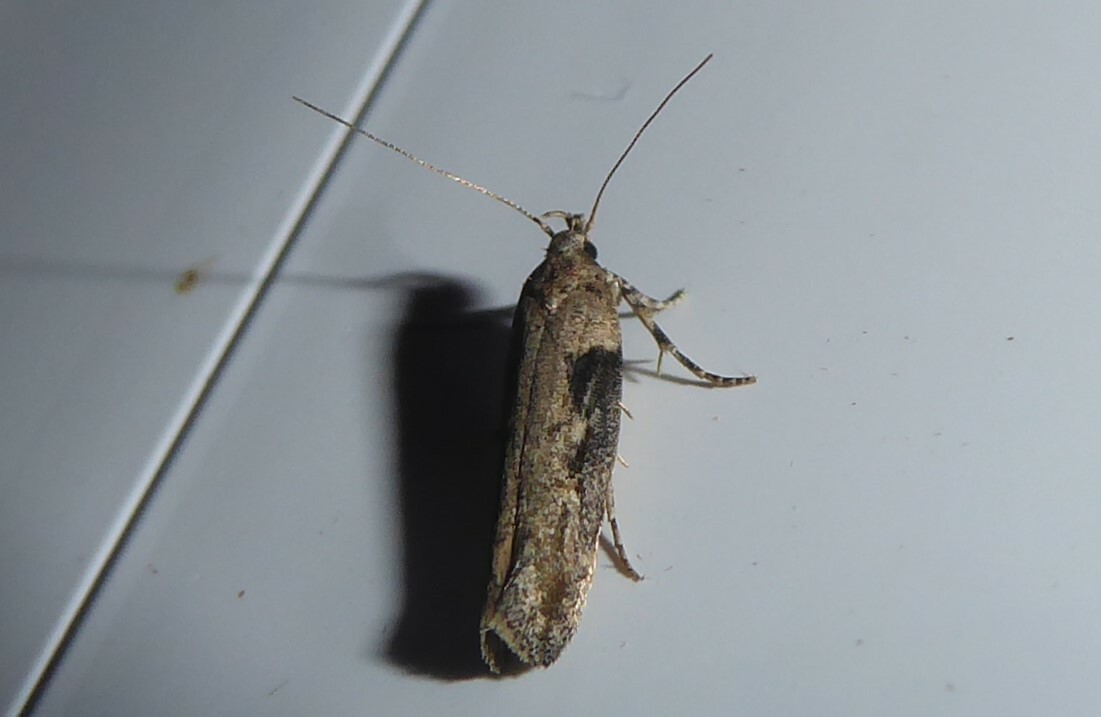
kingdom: Animalia
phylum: Arthropoda
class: Insecta
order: Lepidoptera
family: Gelechiidae
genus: Symmetrischema
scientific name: Symmetrischema tangolias
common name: Moth
